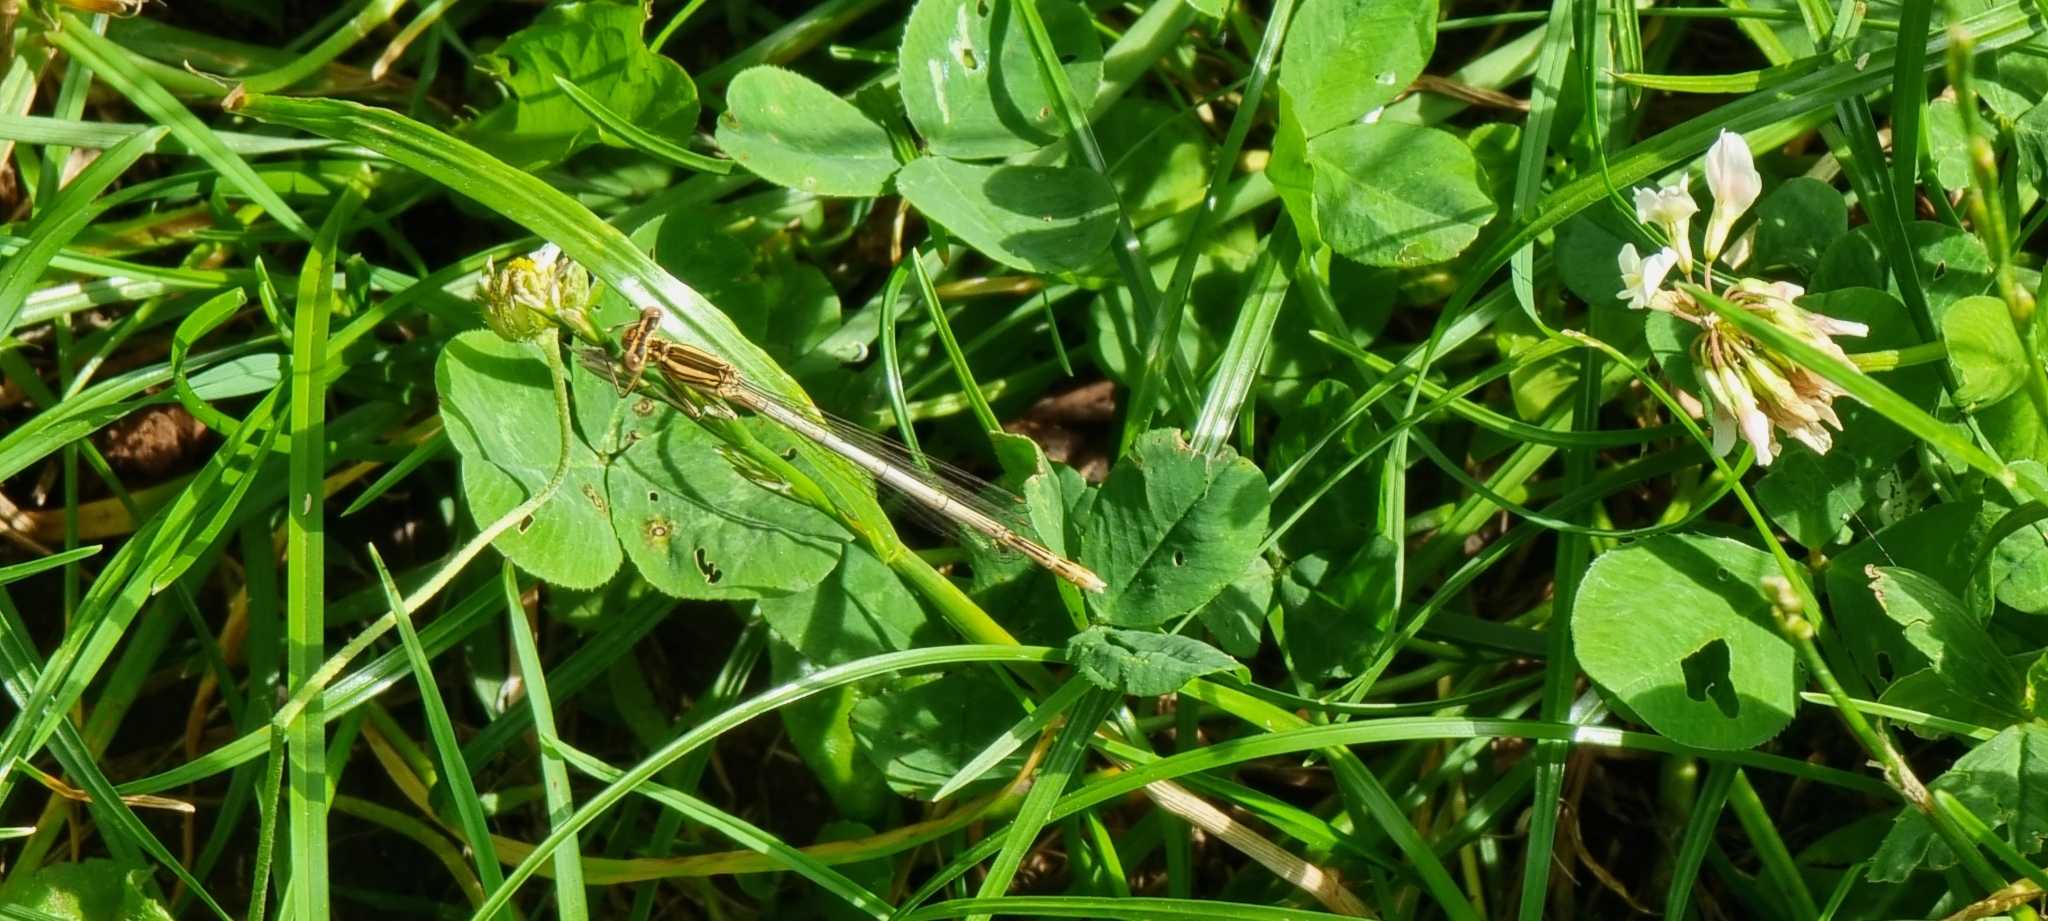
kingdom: Animalia
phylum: Arthropoda
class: Insecta
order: Odonata
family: Platycnemididae
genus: Platycnemis
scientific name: Platycnemis pennipes
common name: White-legged damselfly
